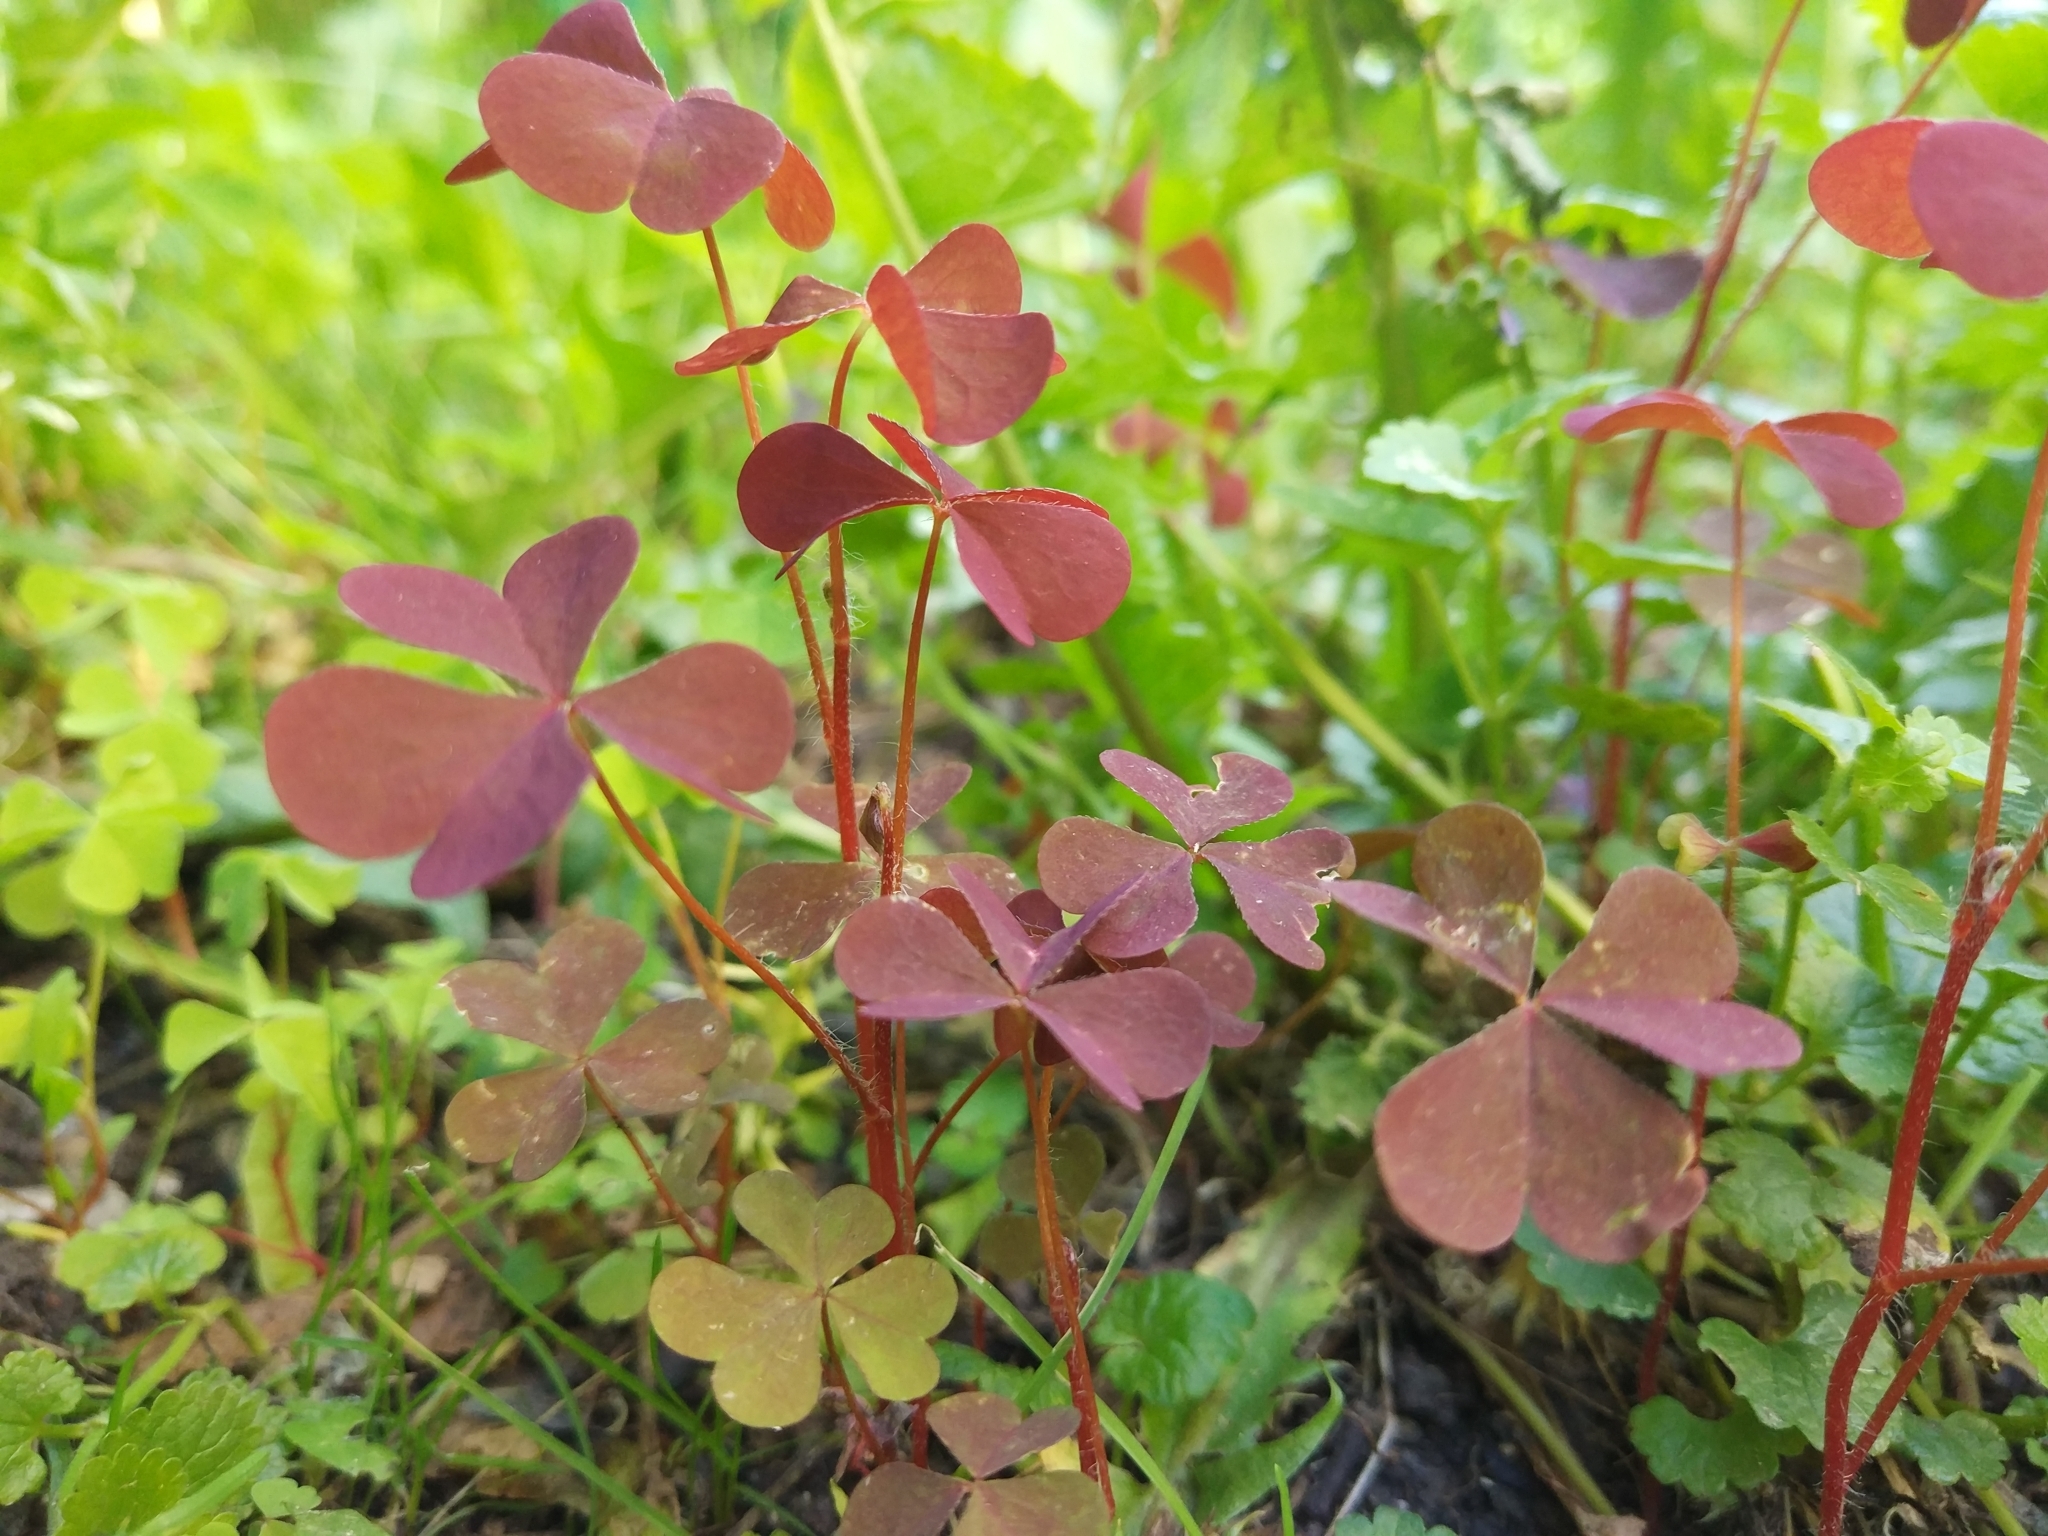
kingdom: Plantae
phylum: Tracheophyta
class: Magnoliopsida
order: Oxalidales
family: Oxalidaceae
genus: Oxalis
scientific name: Oxalis stricta
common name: Upright yellow-sorrel
